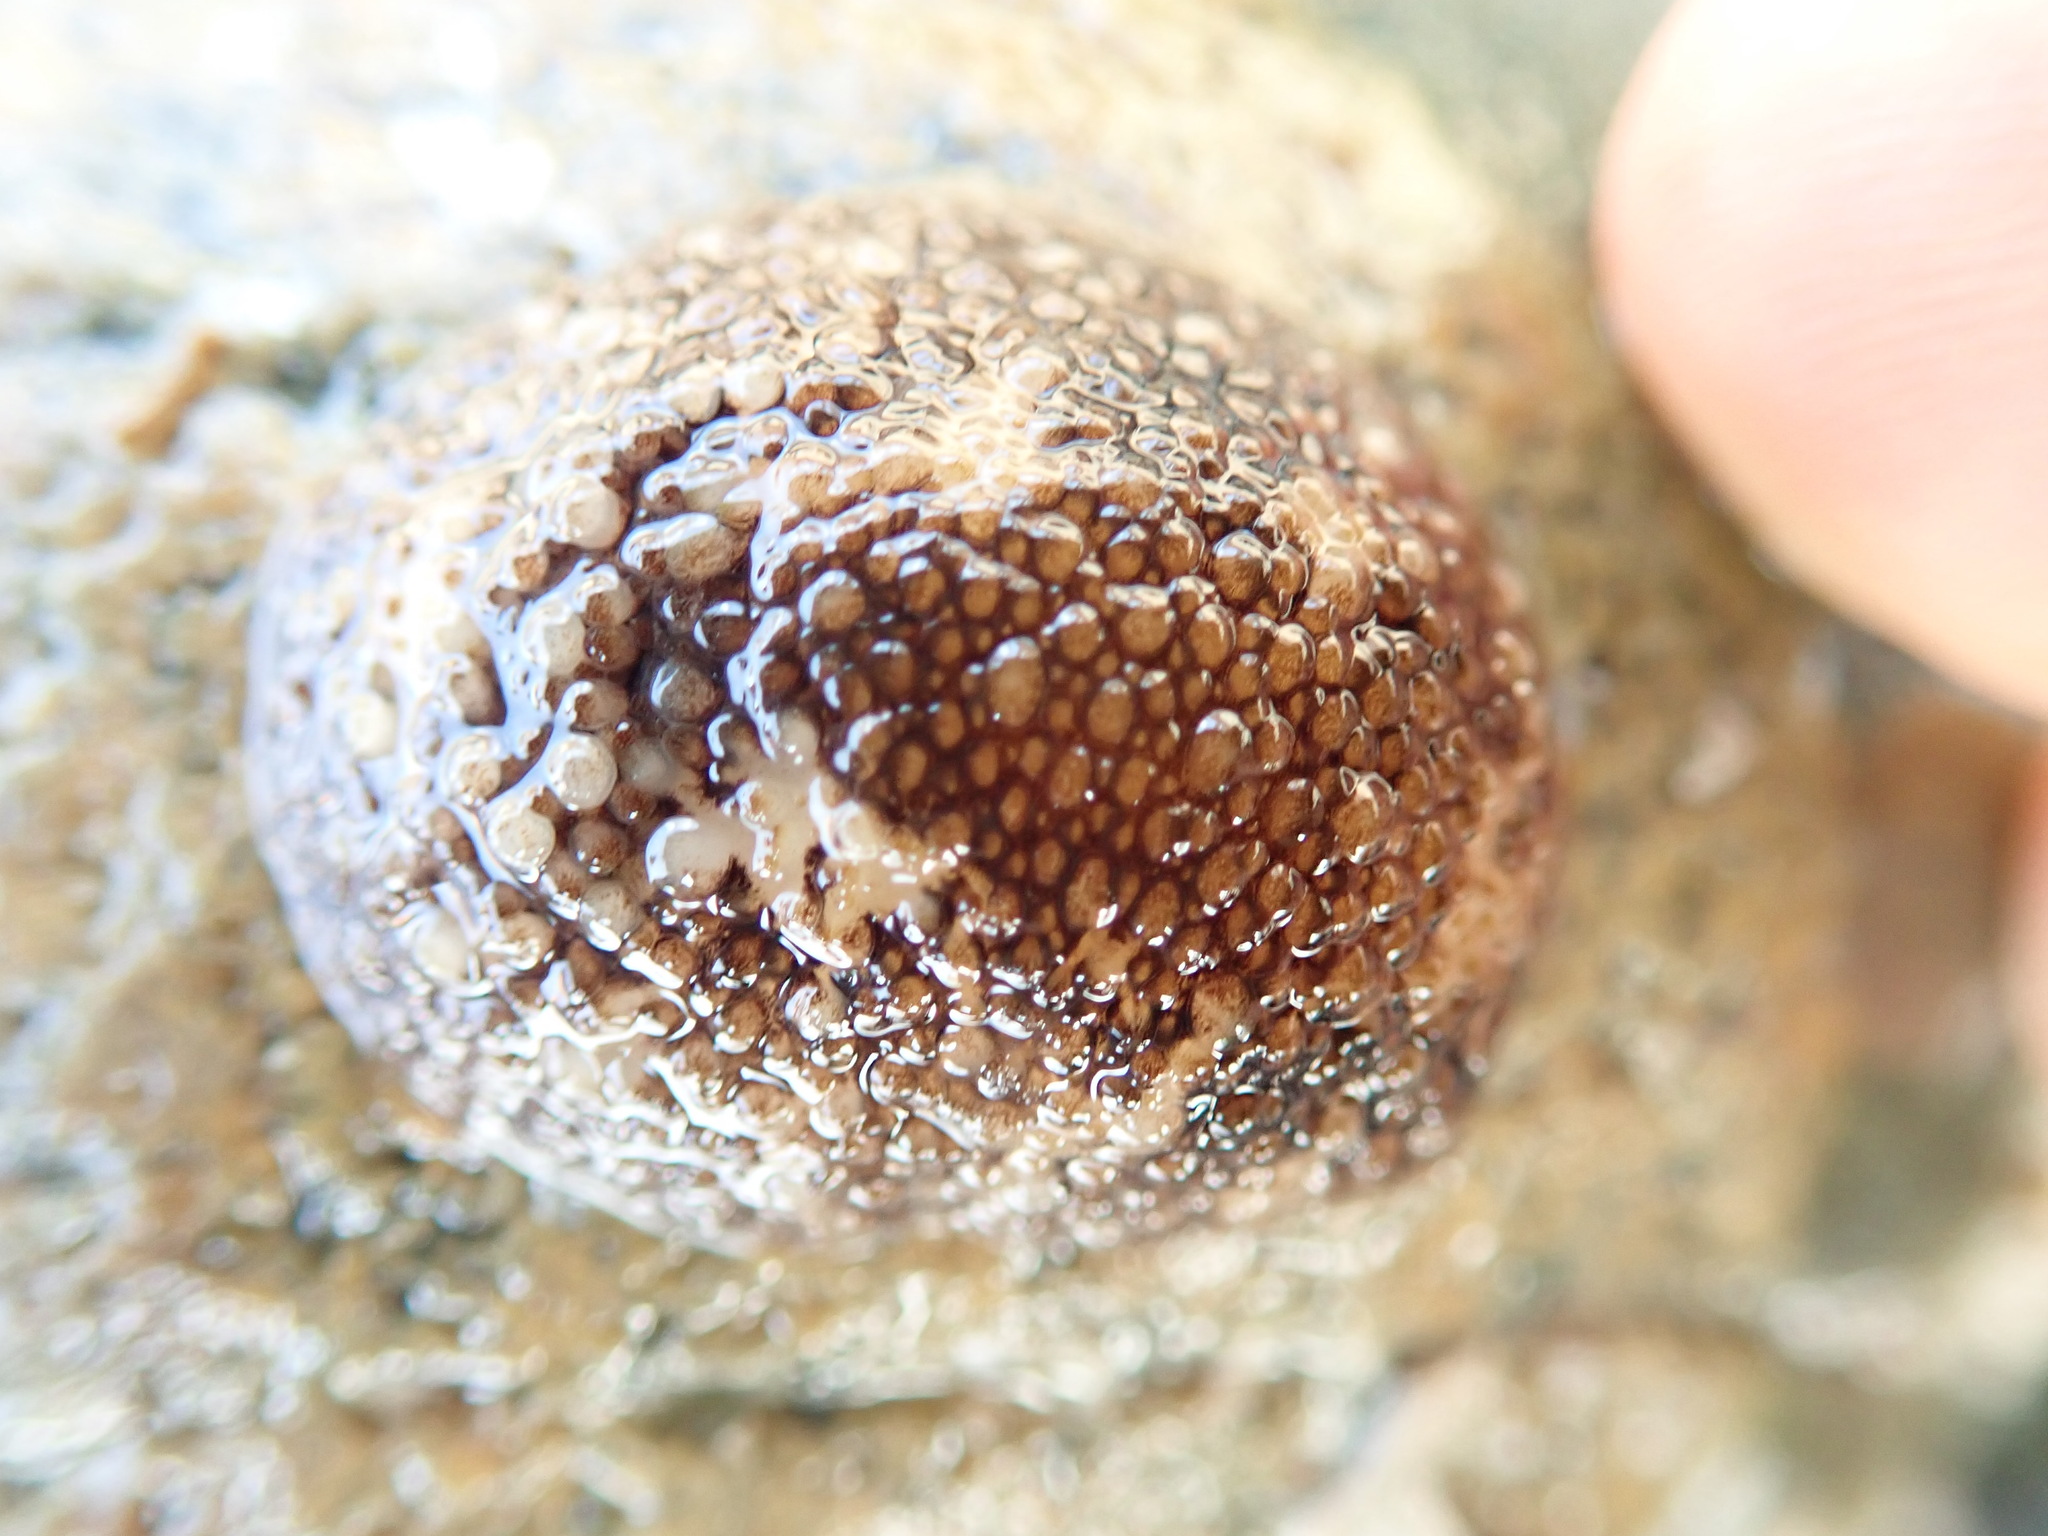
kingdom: Animalia
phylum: Mollusca
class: Gastropoda
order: Nudibranchia
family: Onchidorididae
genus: Onchidoris
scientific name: Onchidoris bilamellata
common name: Barnacle-eating onchidoris
